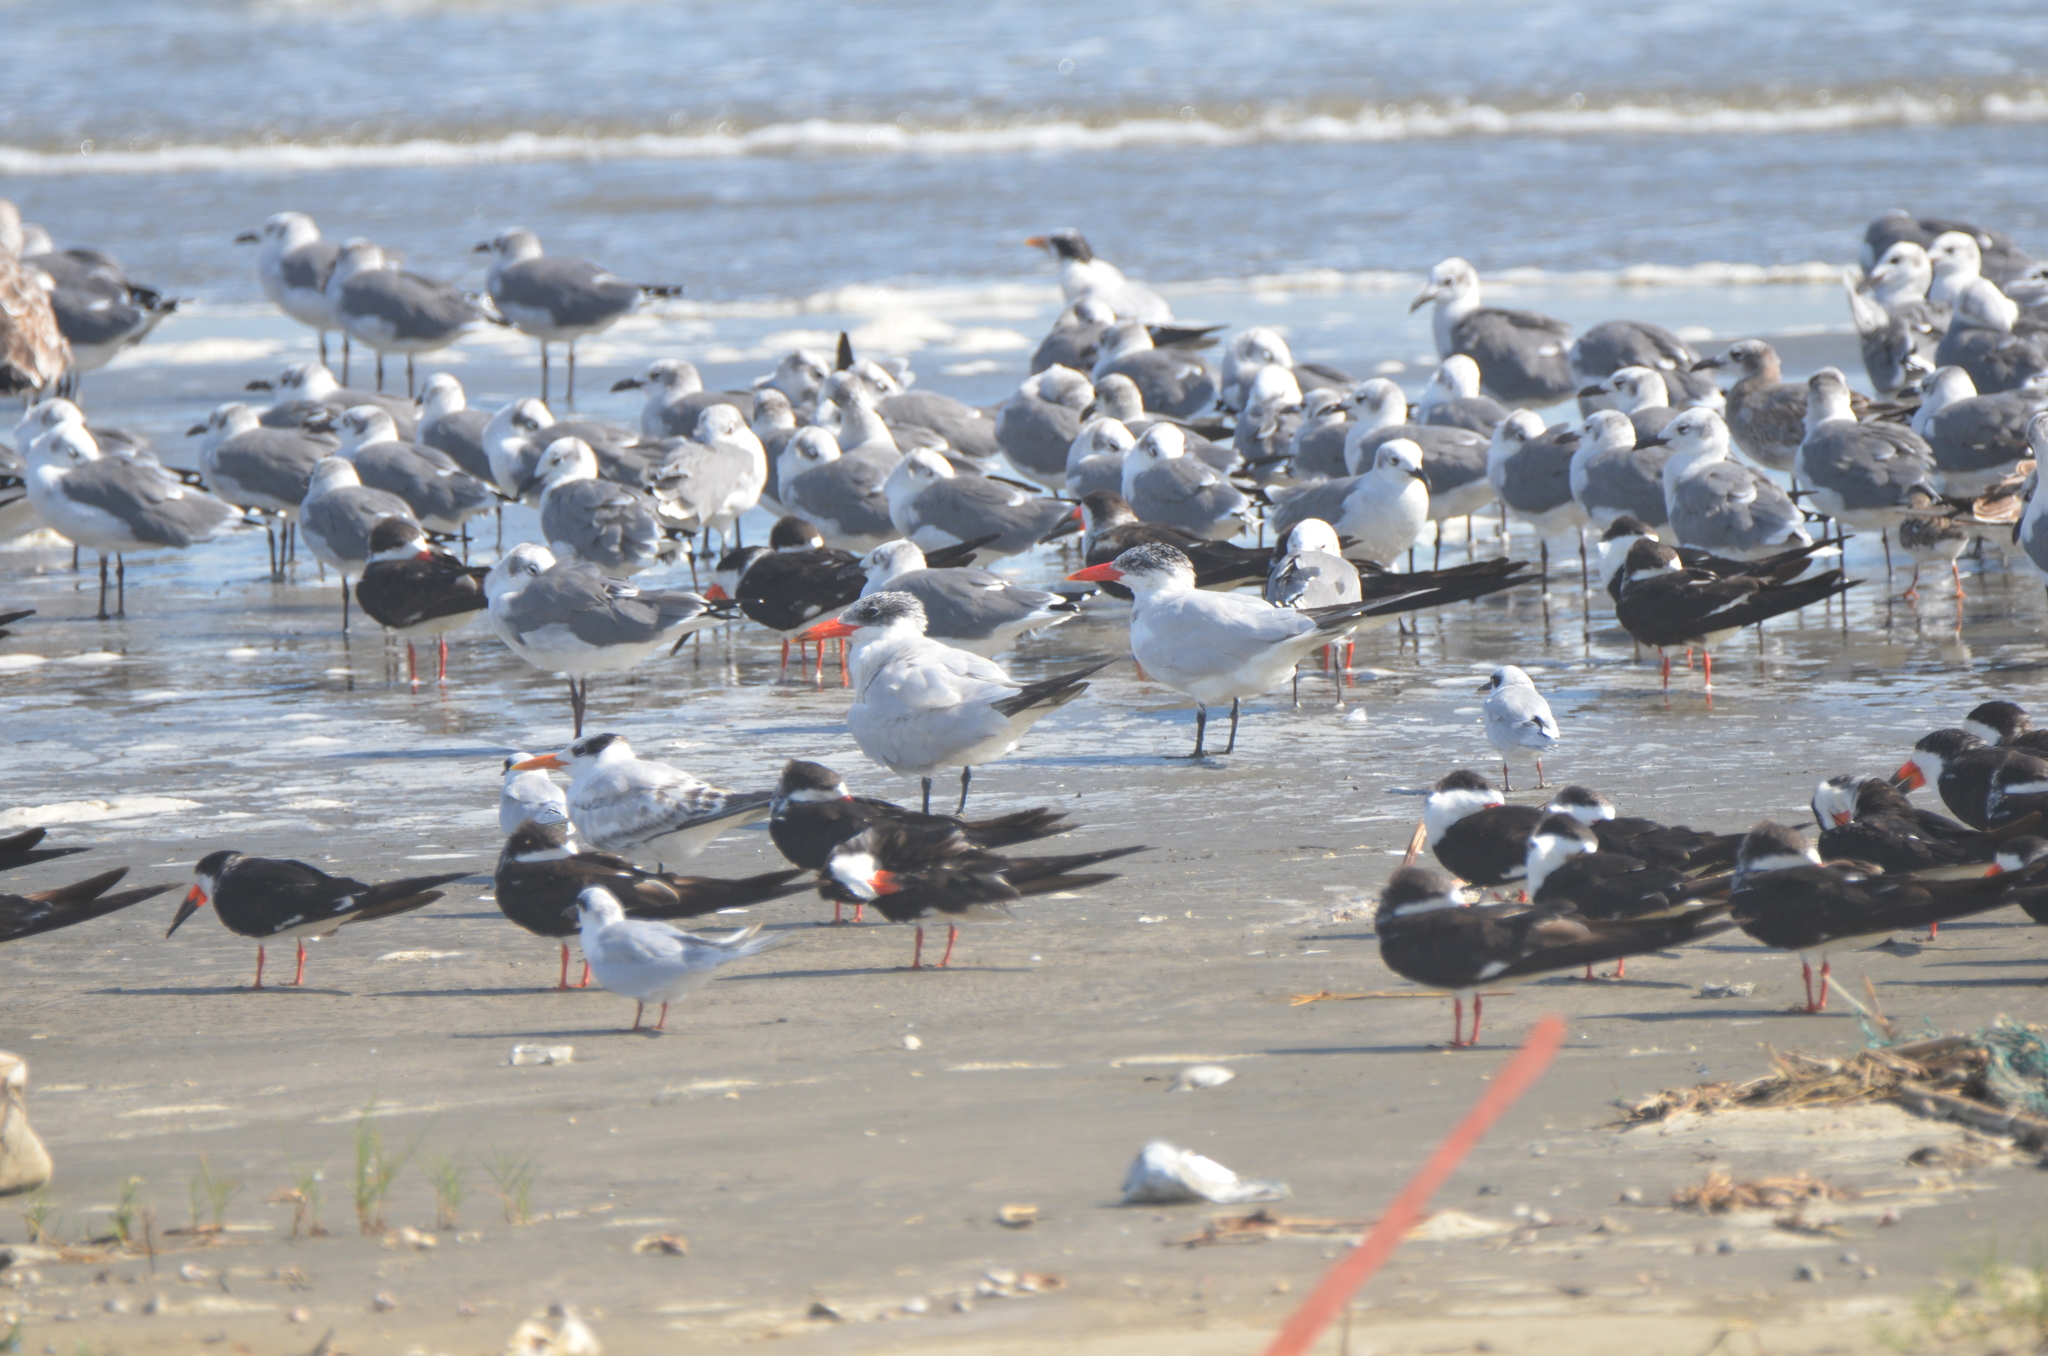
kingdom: Animalia
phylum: Chordata
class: Aves
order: Charadriiformes
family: Laridae
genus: Hydroprogne
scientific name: Hydroprogne caspia
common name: Caspian tern
